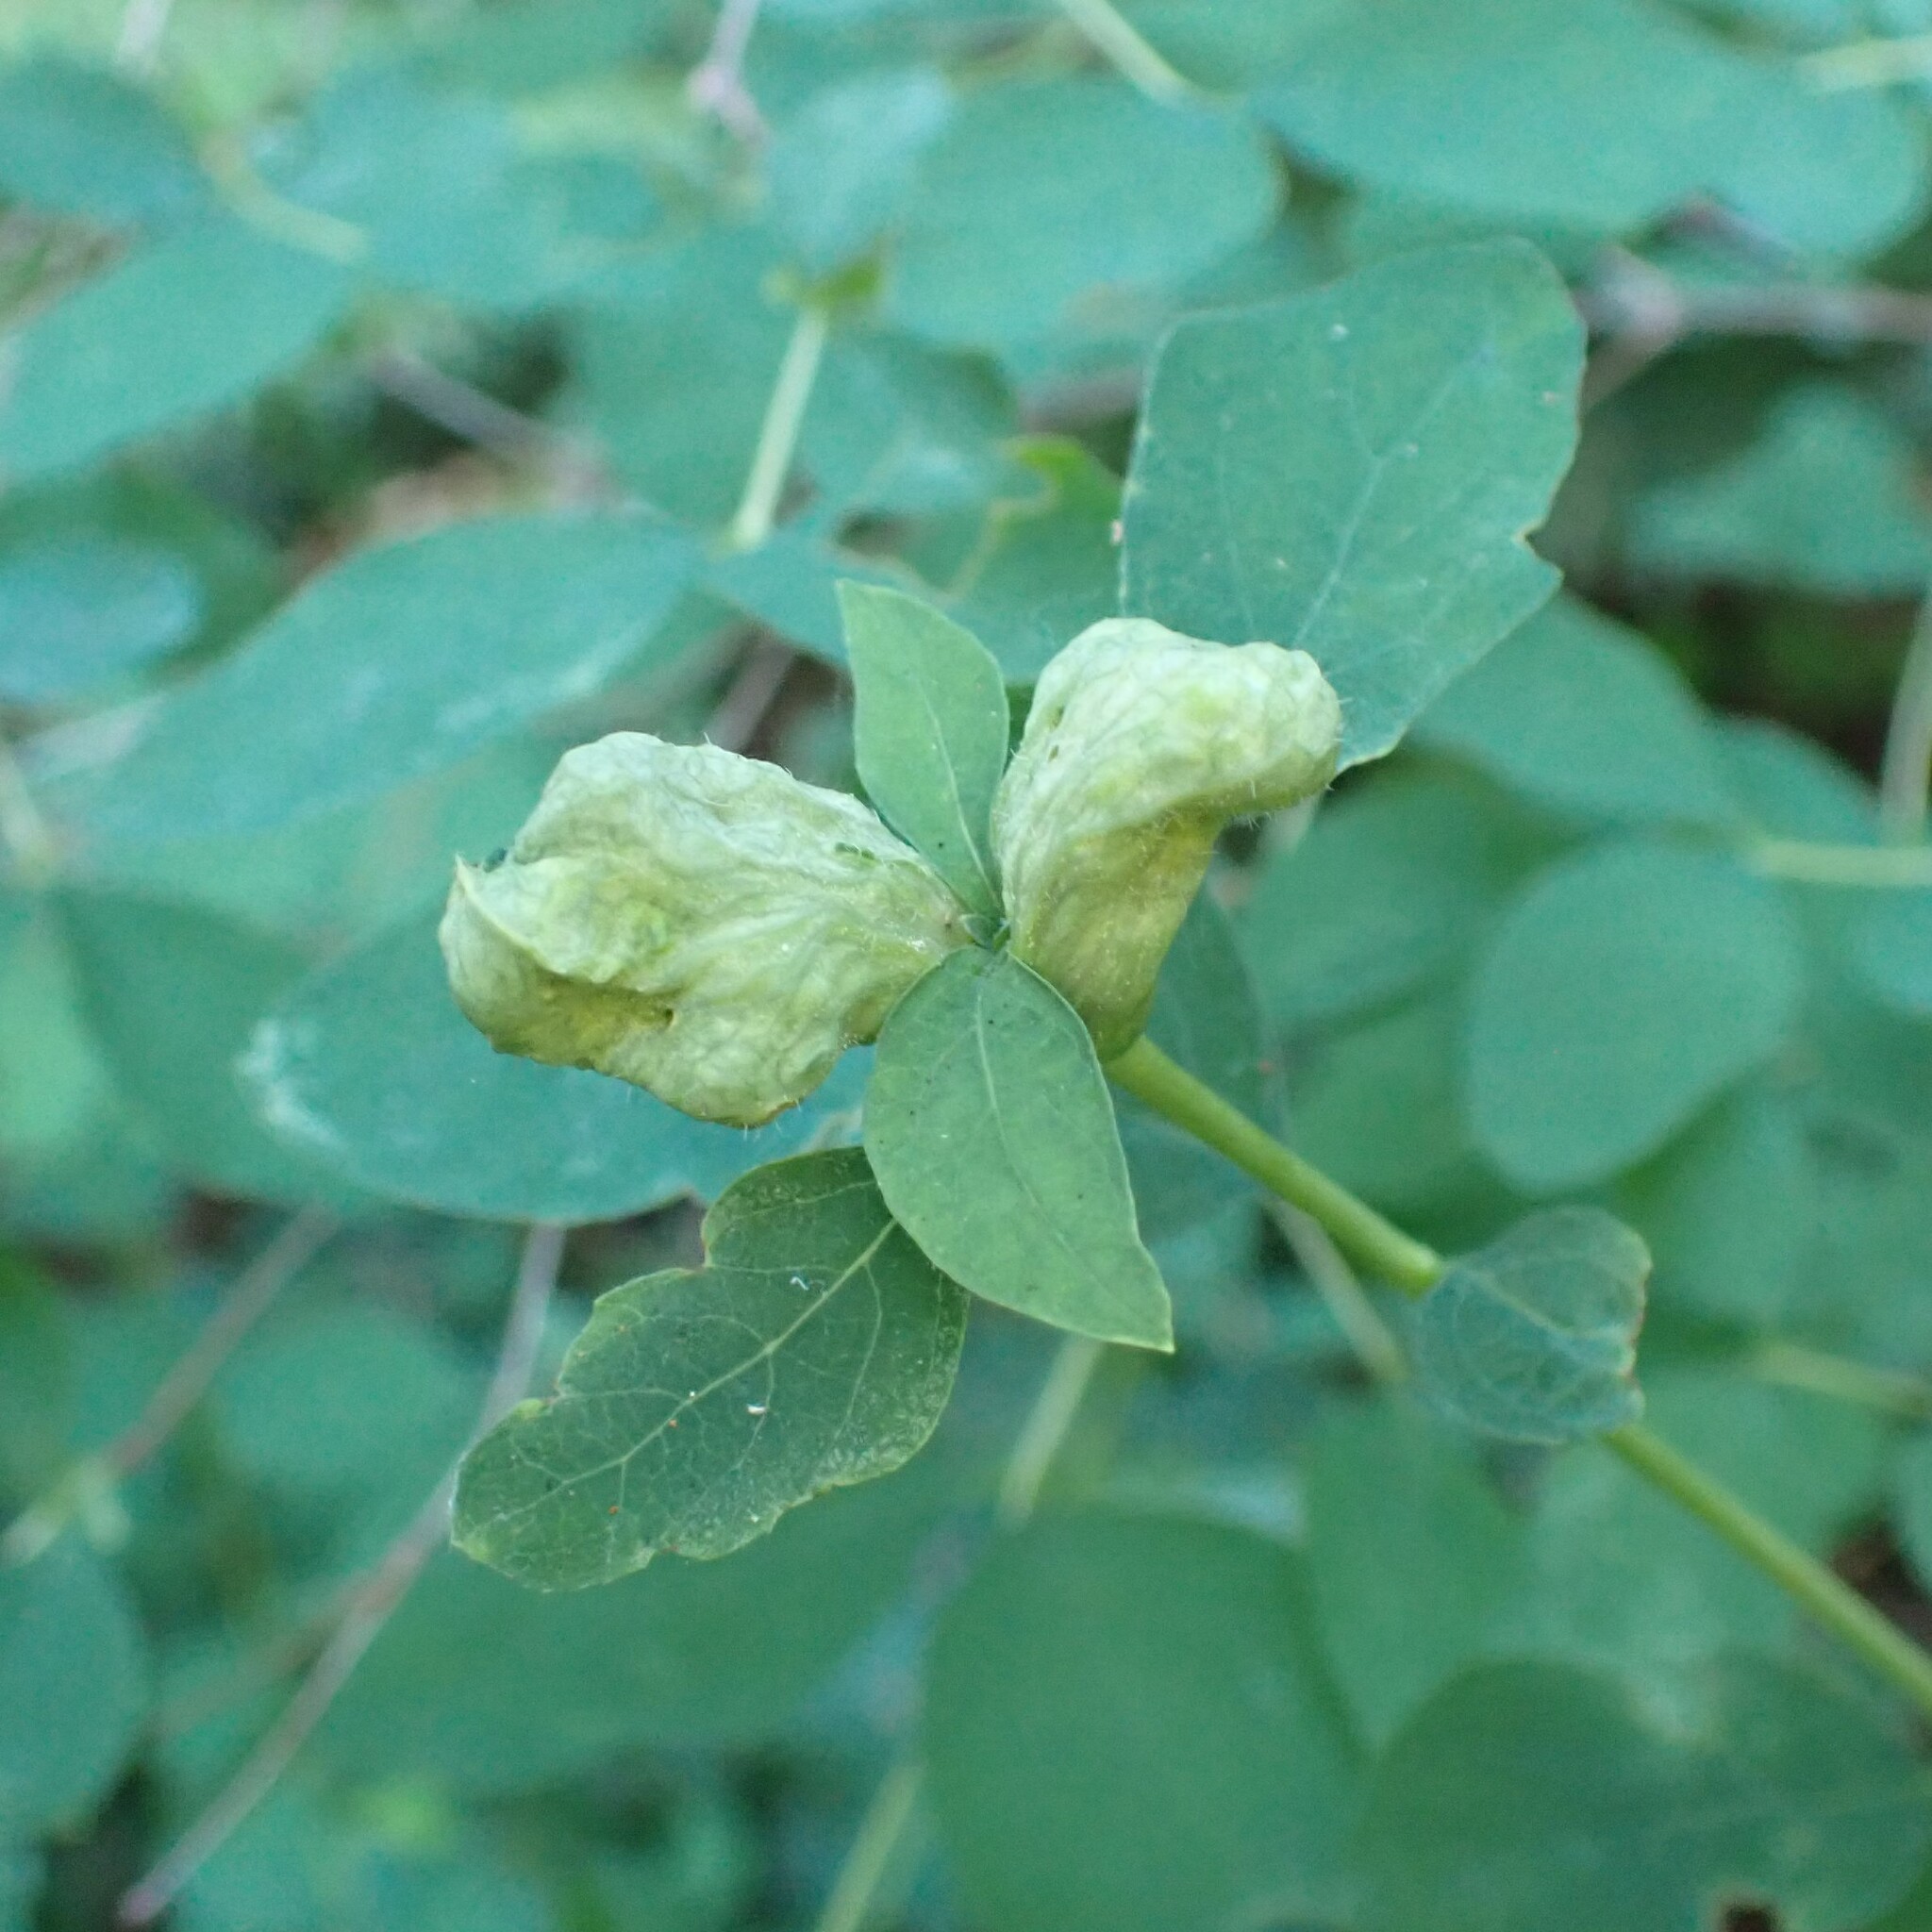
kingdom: Animalia
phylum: Arthropoda
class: Insecta
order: Hymenoptera
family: Tenthredinidae
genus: Blennogeneris
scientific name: Blennogeneris spissipes
